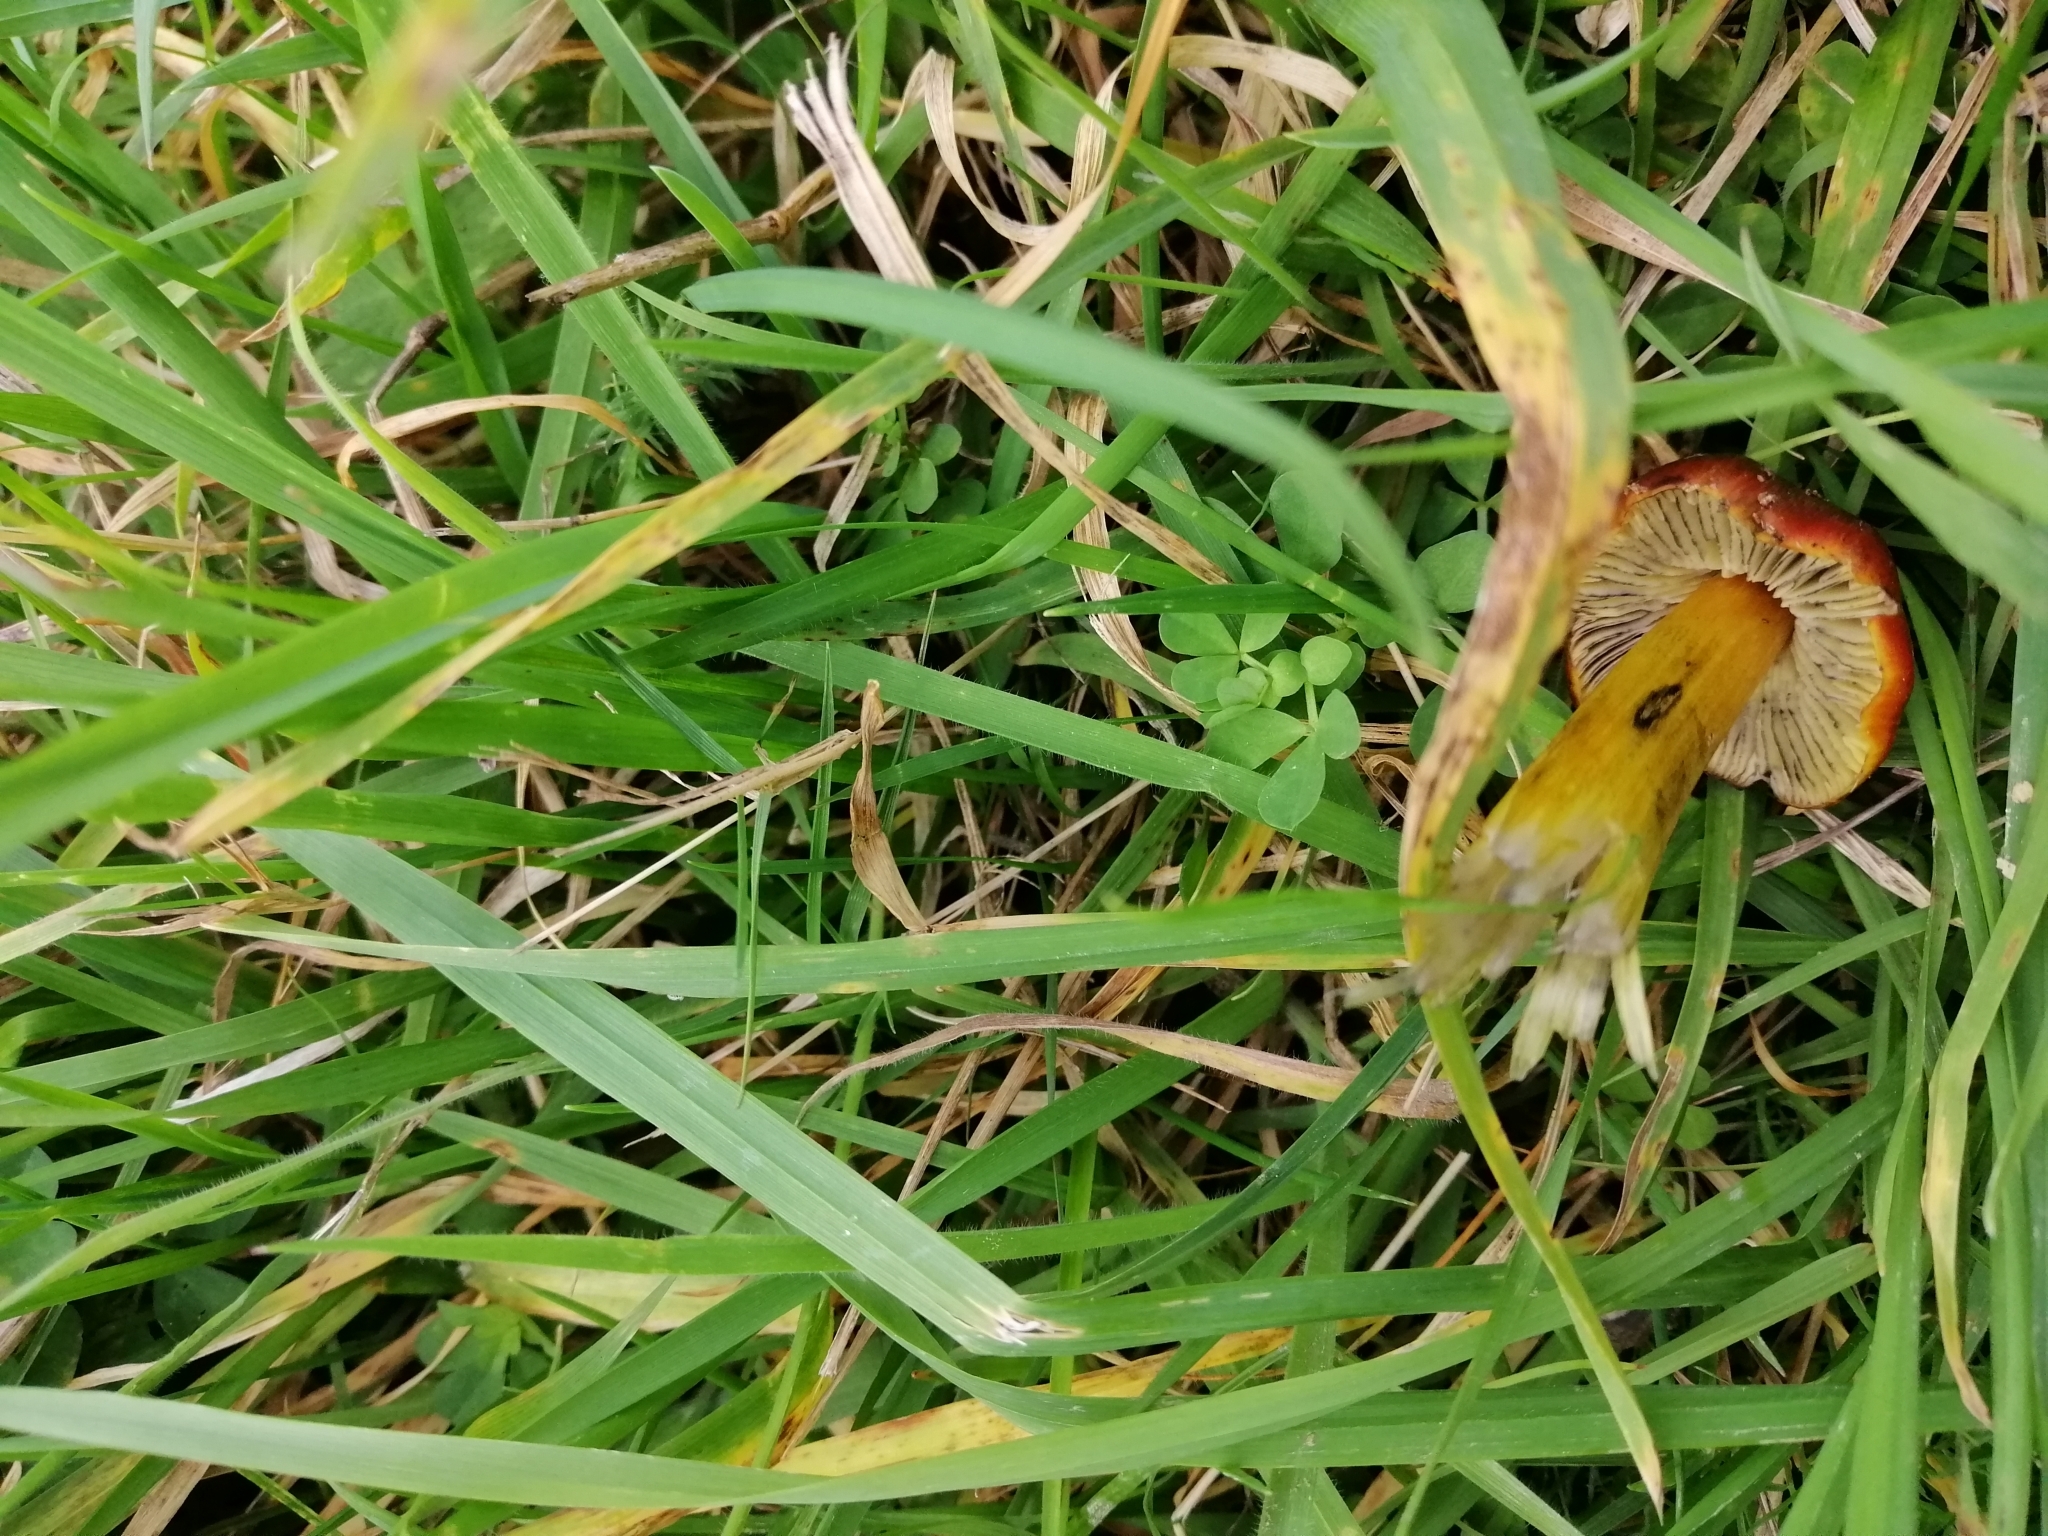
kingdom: Fungi
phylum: Basidiomycota
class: Agaricomycetes
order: Agaricales
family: Hygrophoraceae
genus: Hygrocybe
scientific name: Hygrocybe conica
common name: Blackening wax-cap
